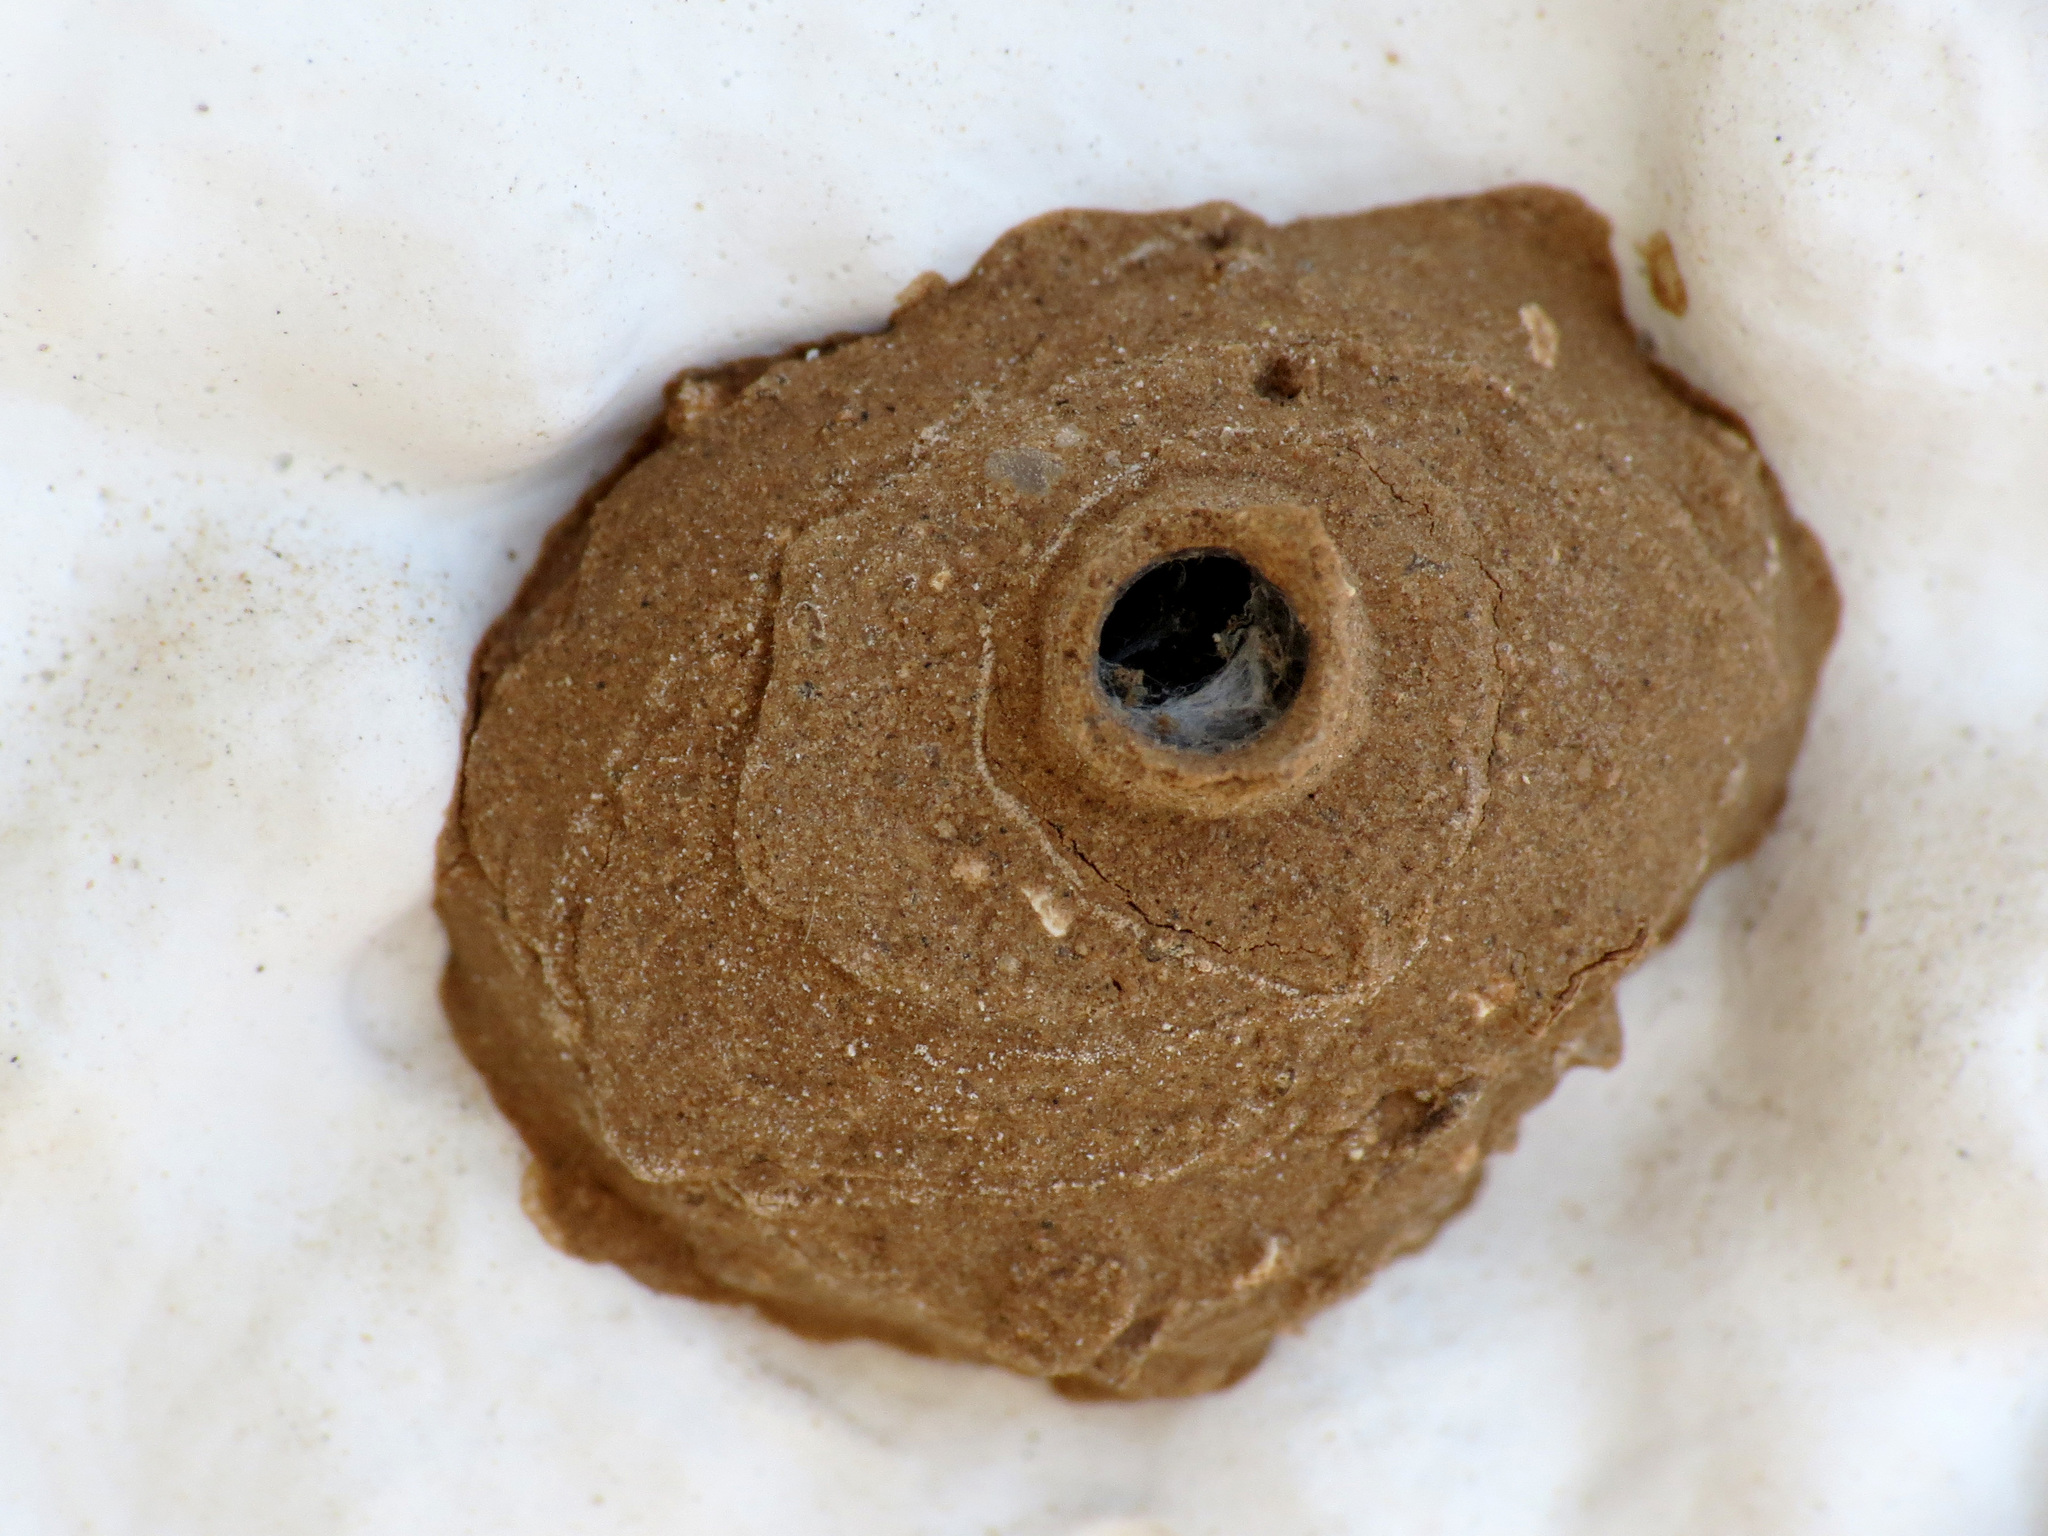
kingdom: Animalia
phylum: Arthropoda
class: Insecta
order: Hymenoptera
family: Eumenidae
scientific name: Eumenidae
